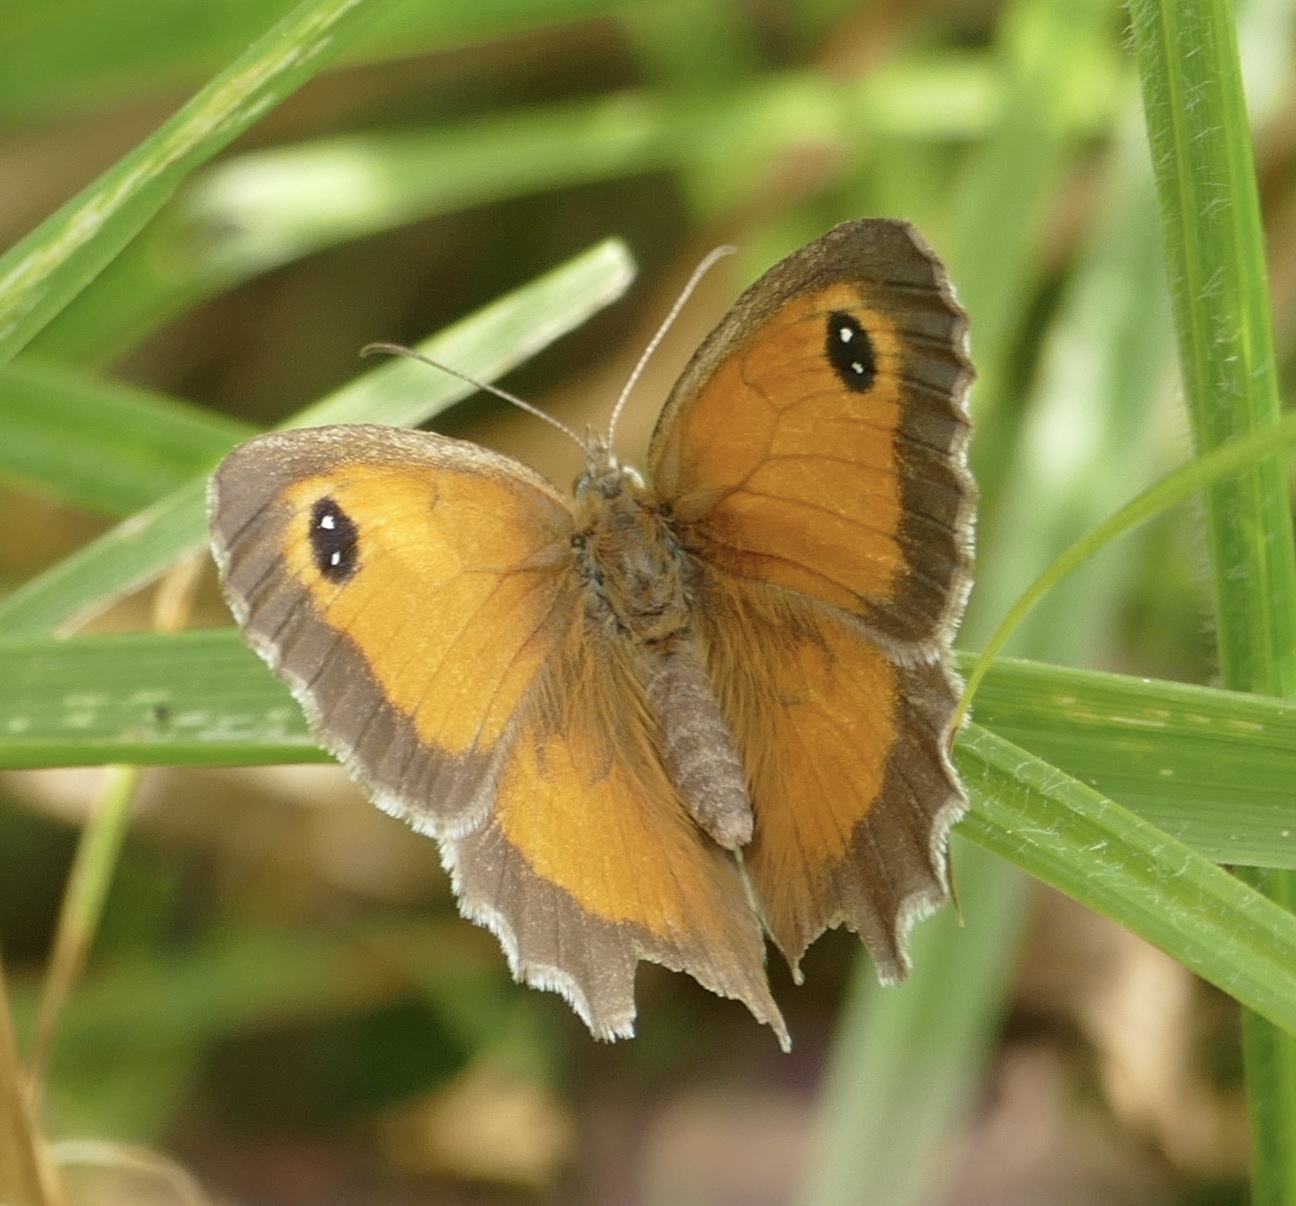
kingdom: Animalia
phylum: Arthropoda
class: Insecta
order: Lepidoptera
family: Nymphalidae
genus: Pyronia
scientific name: Pyronia tithonus
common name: Gatekeeper
